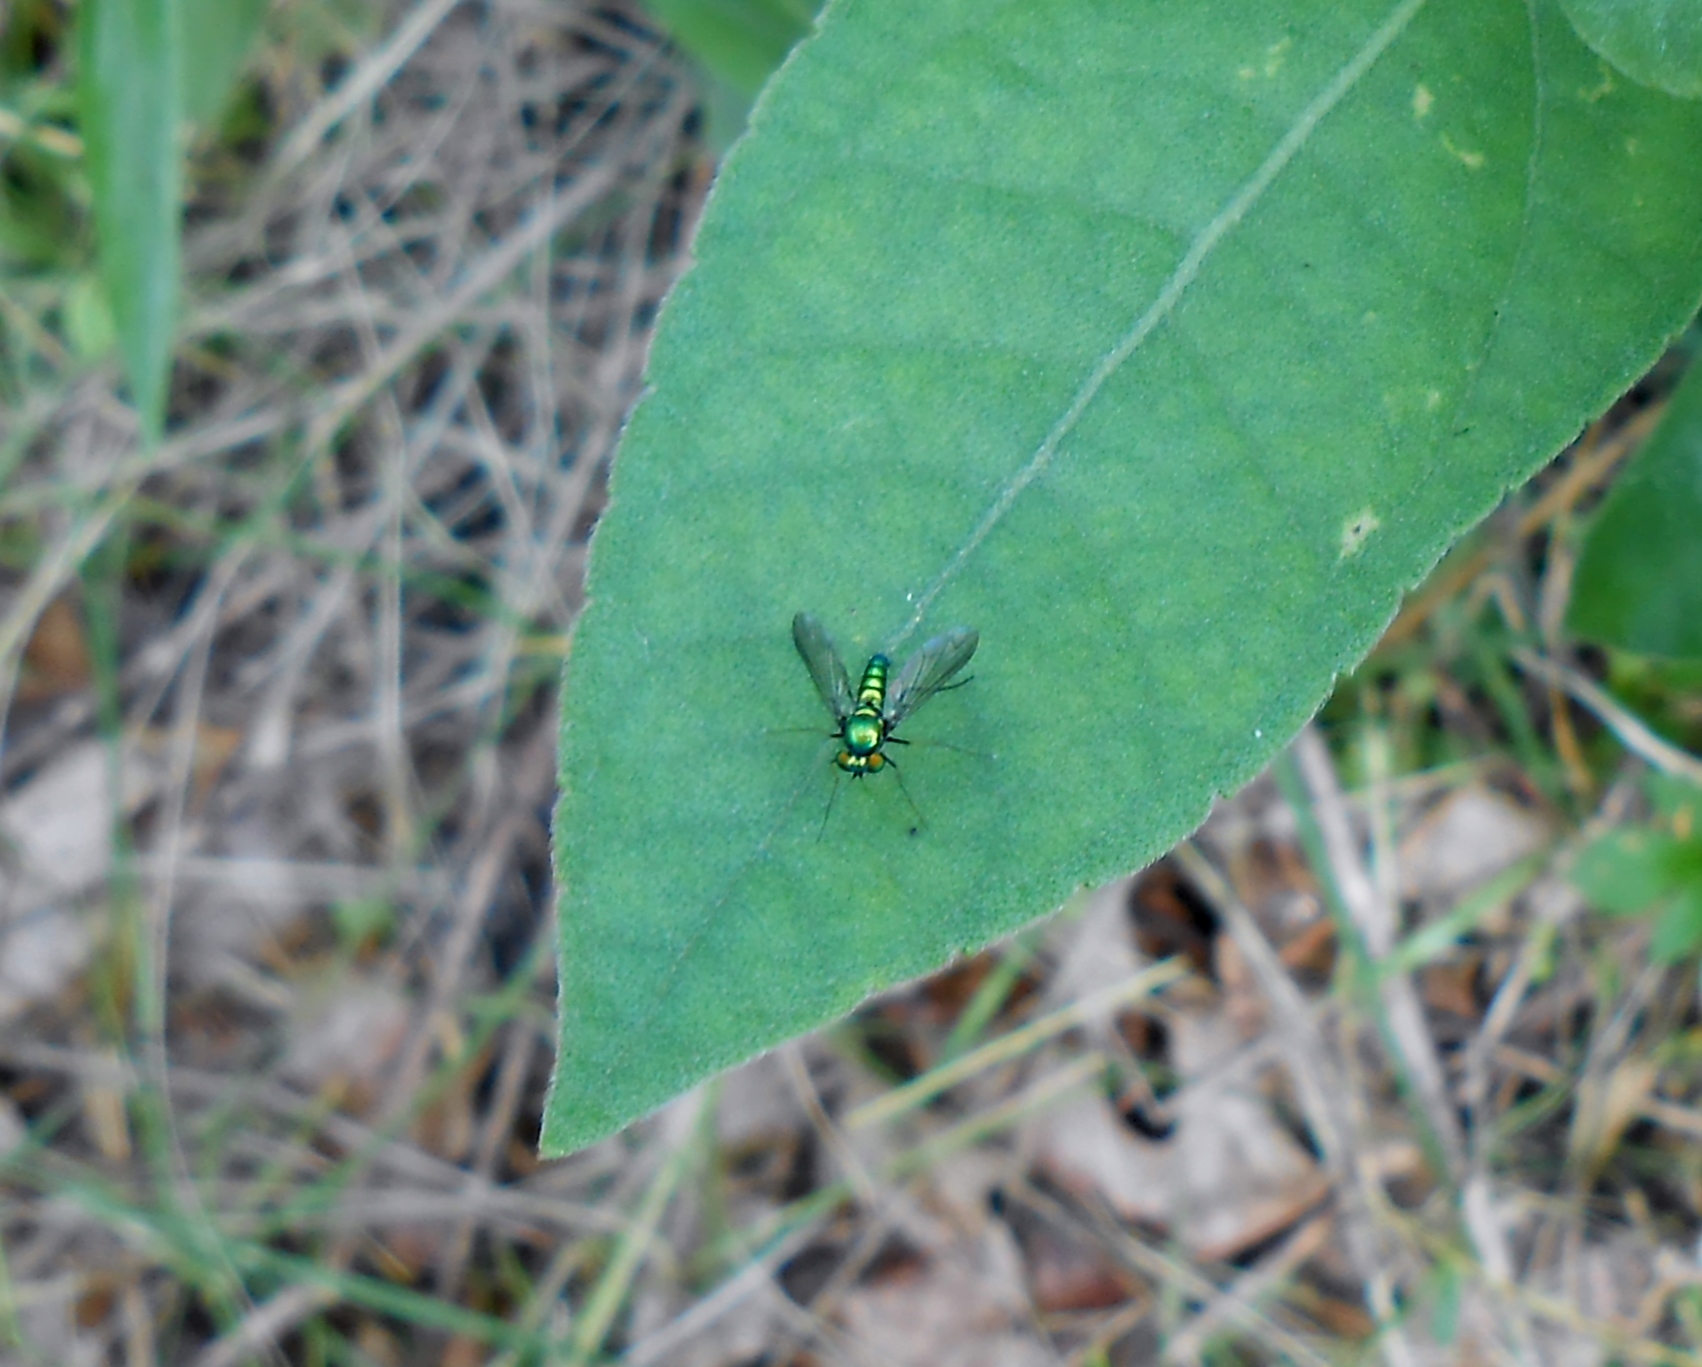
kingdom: Animalia
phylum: Arthropoda
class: Insecta
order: Diptera
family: Dolichopodidae
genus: Condylostylus
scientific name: Condylostylus comatus
